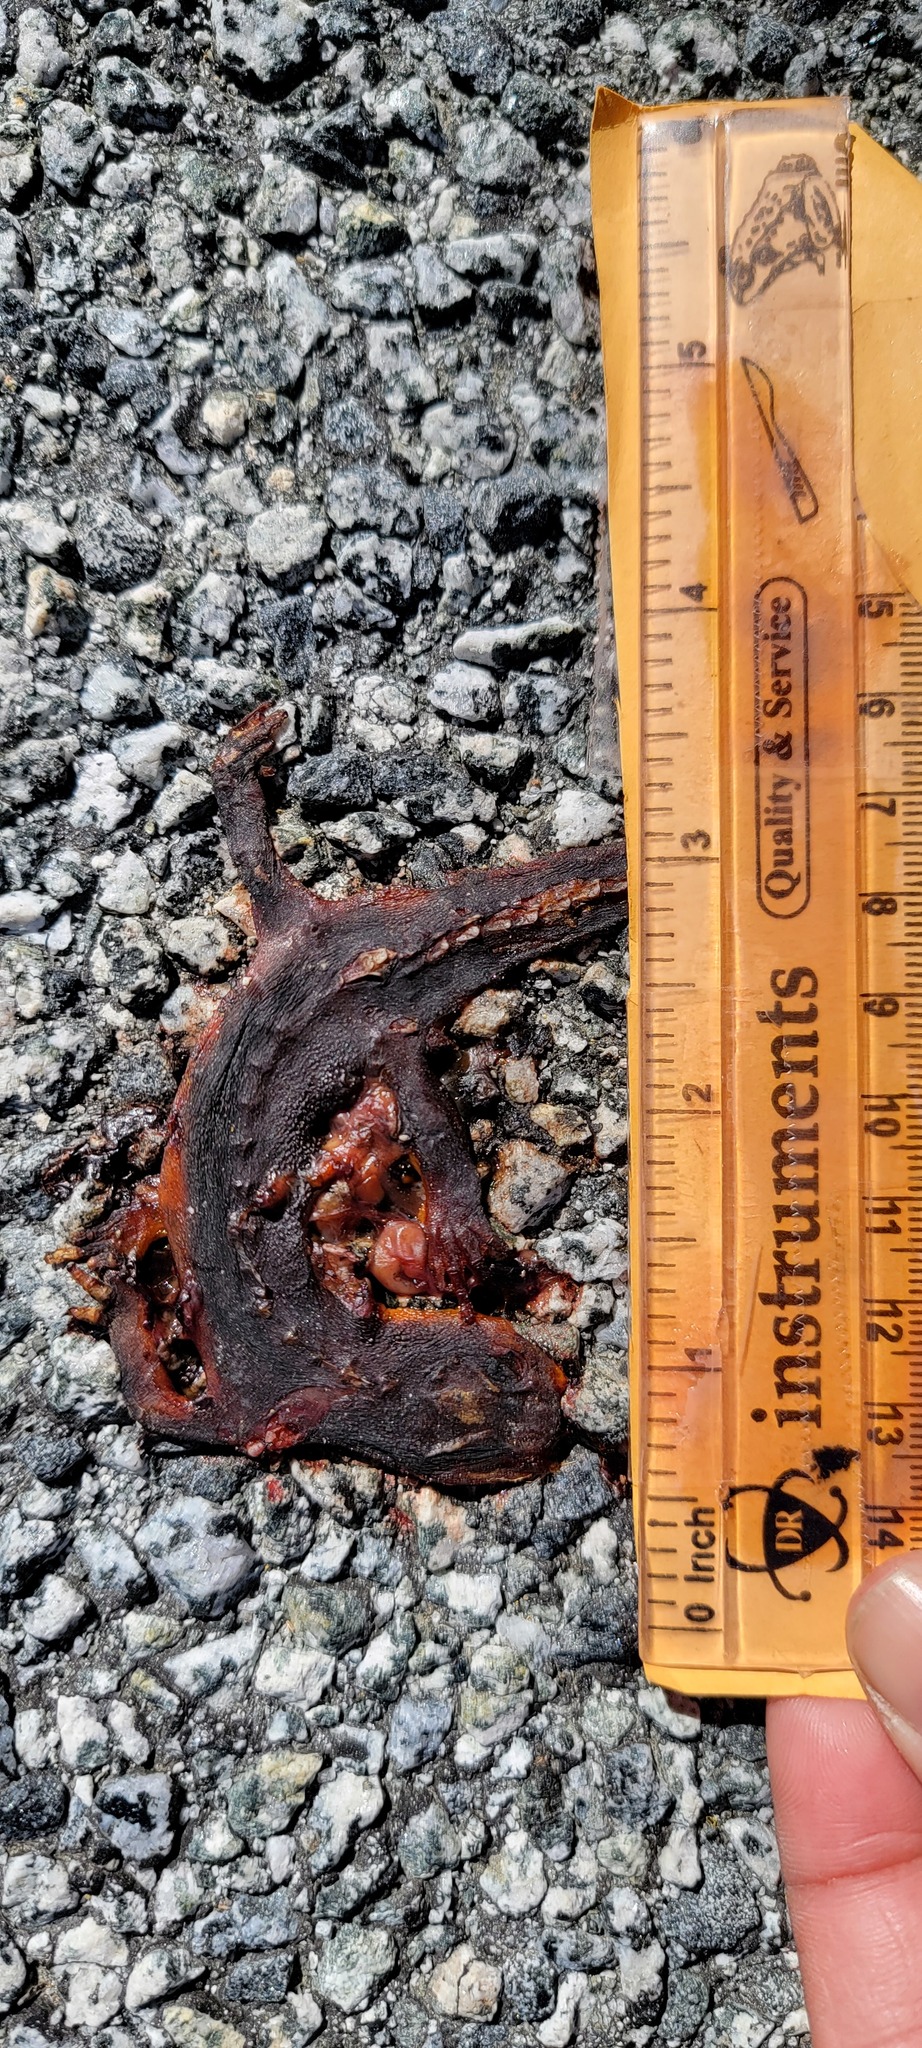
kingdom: Animalia
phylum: Chordata
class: Amphibia
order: Caudata
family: Salamandridae
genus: Taricha
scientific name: Taricha
